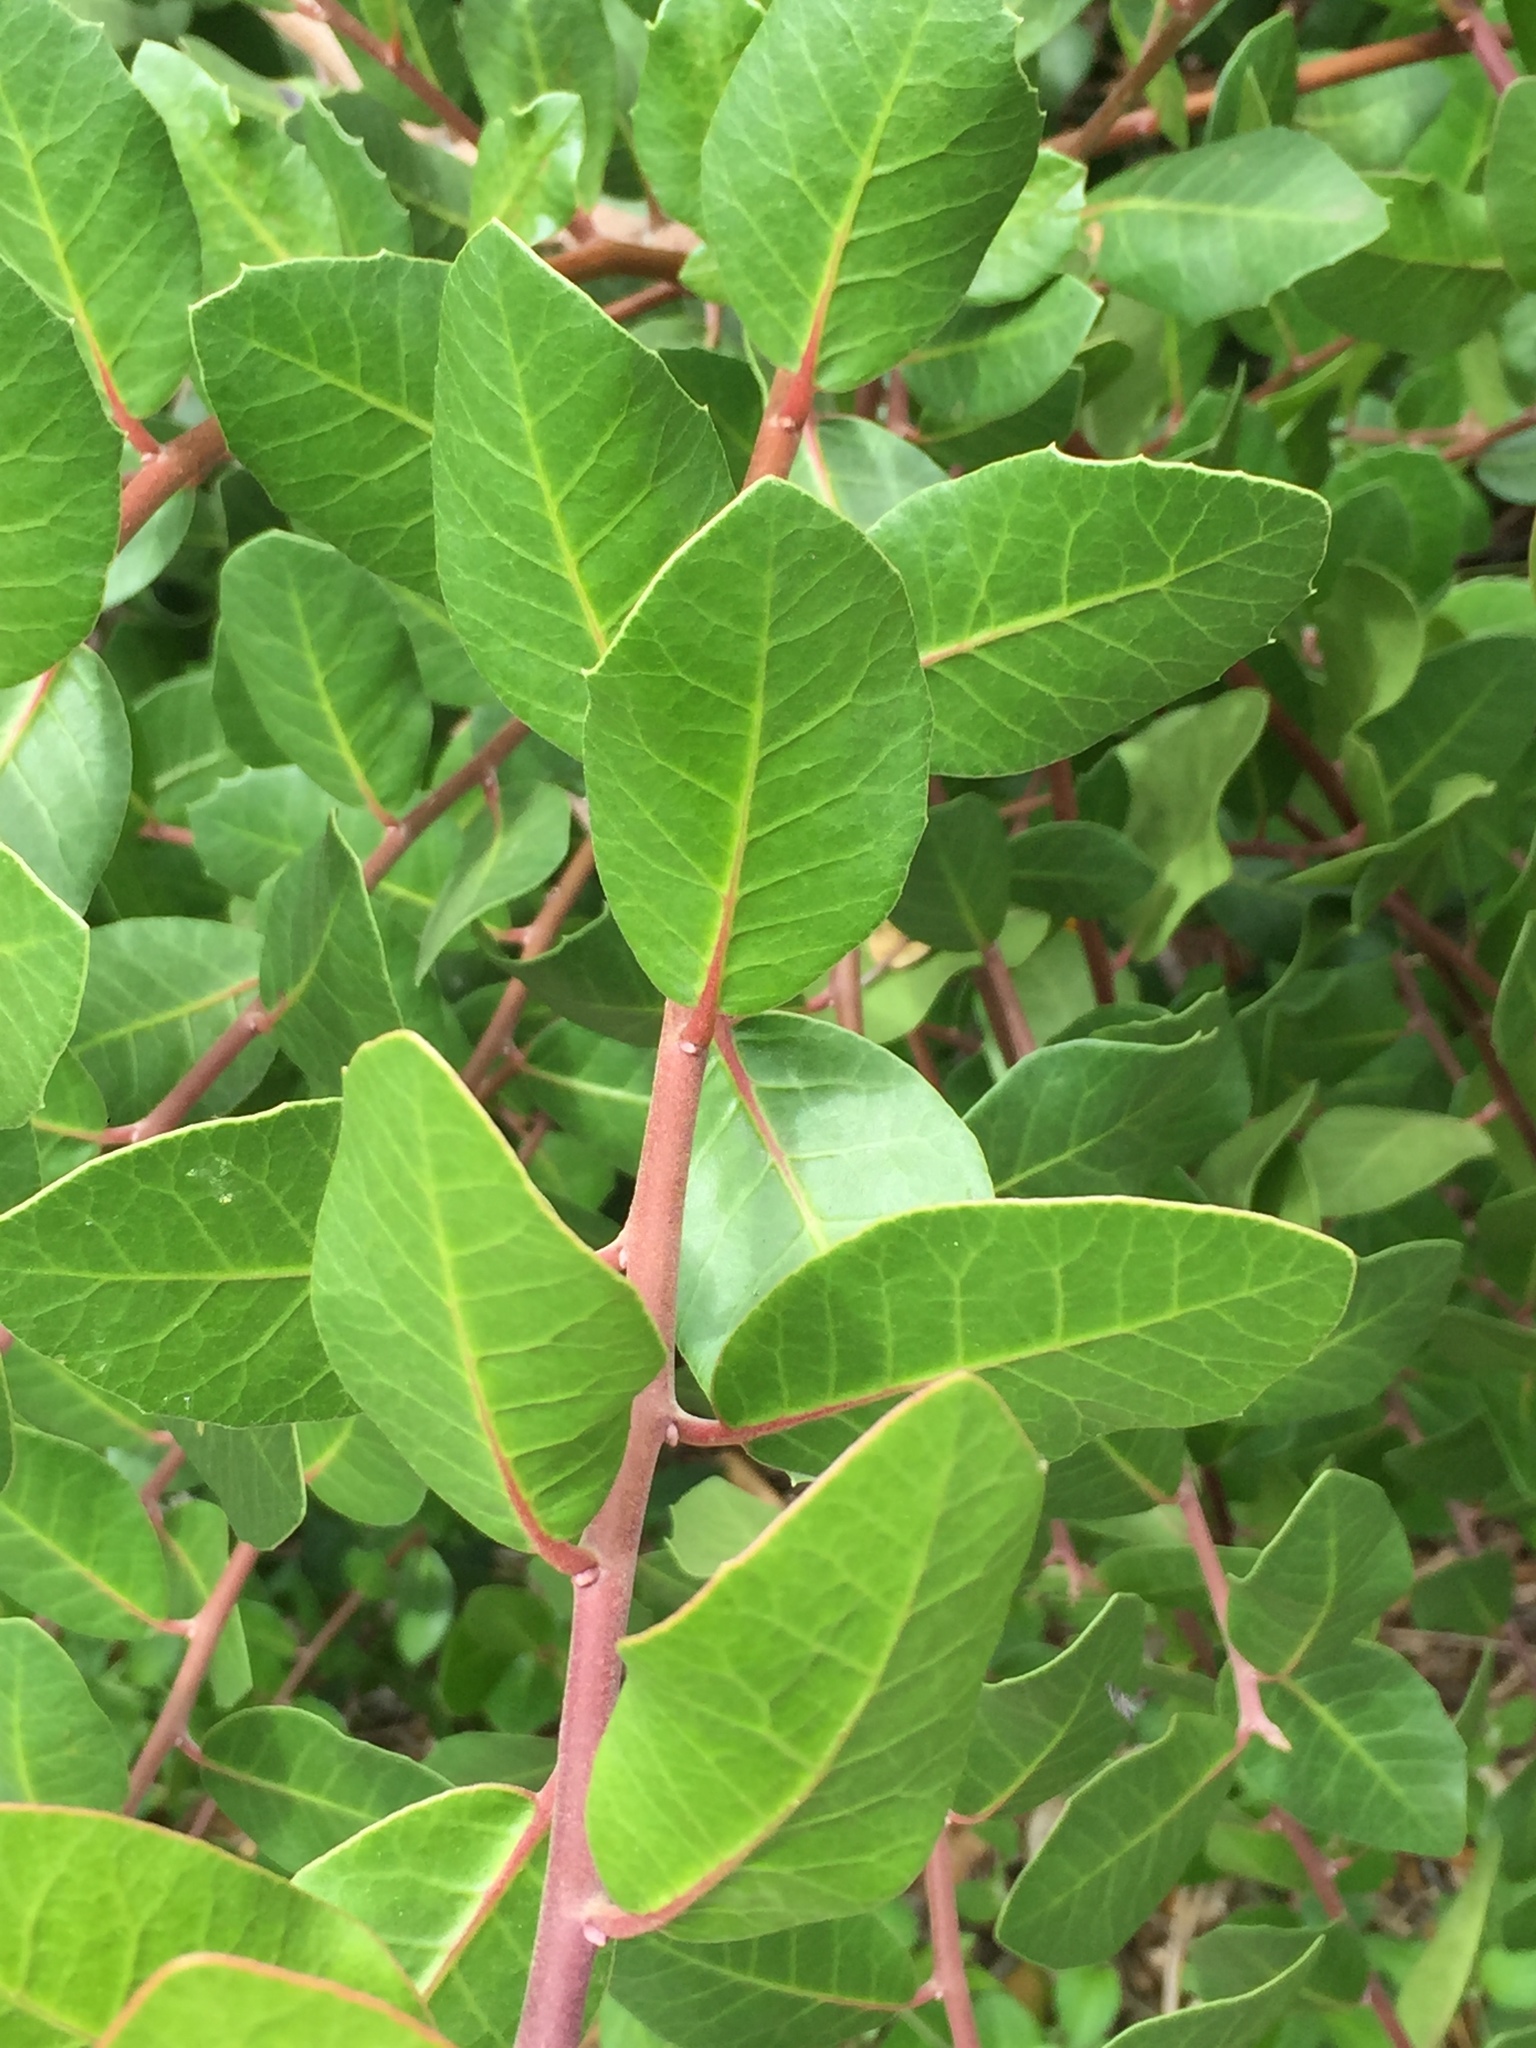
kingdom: Plantae
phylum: Tracheophyta
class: Magnoliopsida
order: Sapindales
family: Anacardiaceae
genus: Rhus
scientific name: Rhus integrifolia
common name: Lemonade sumac
